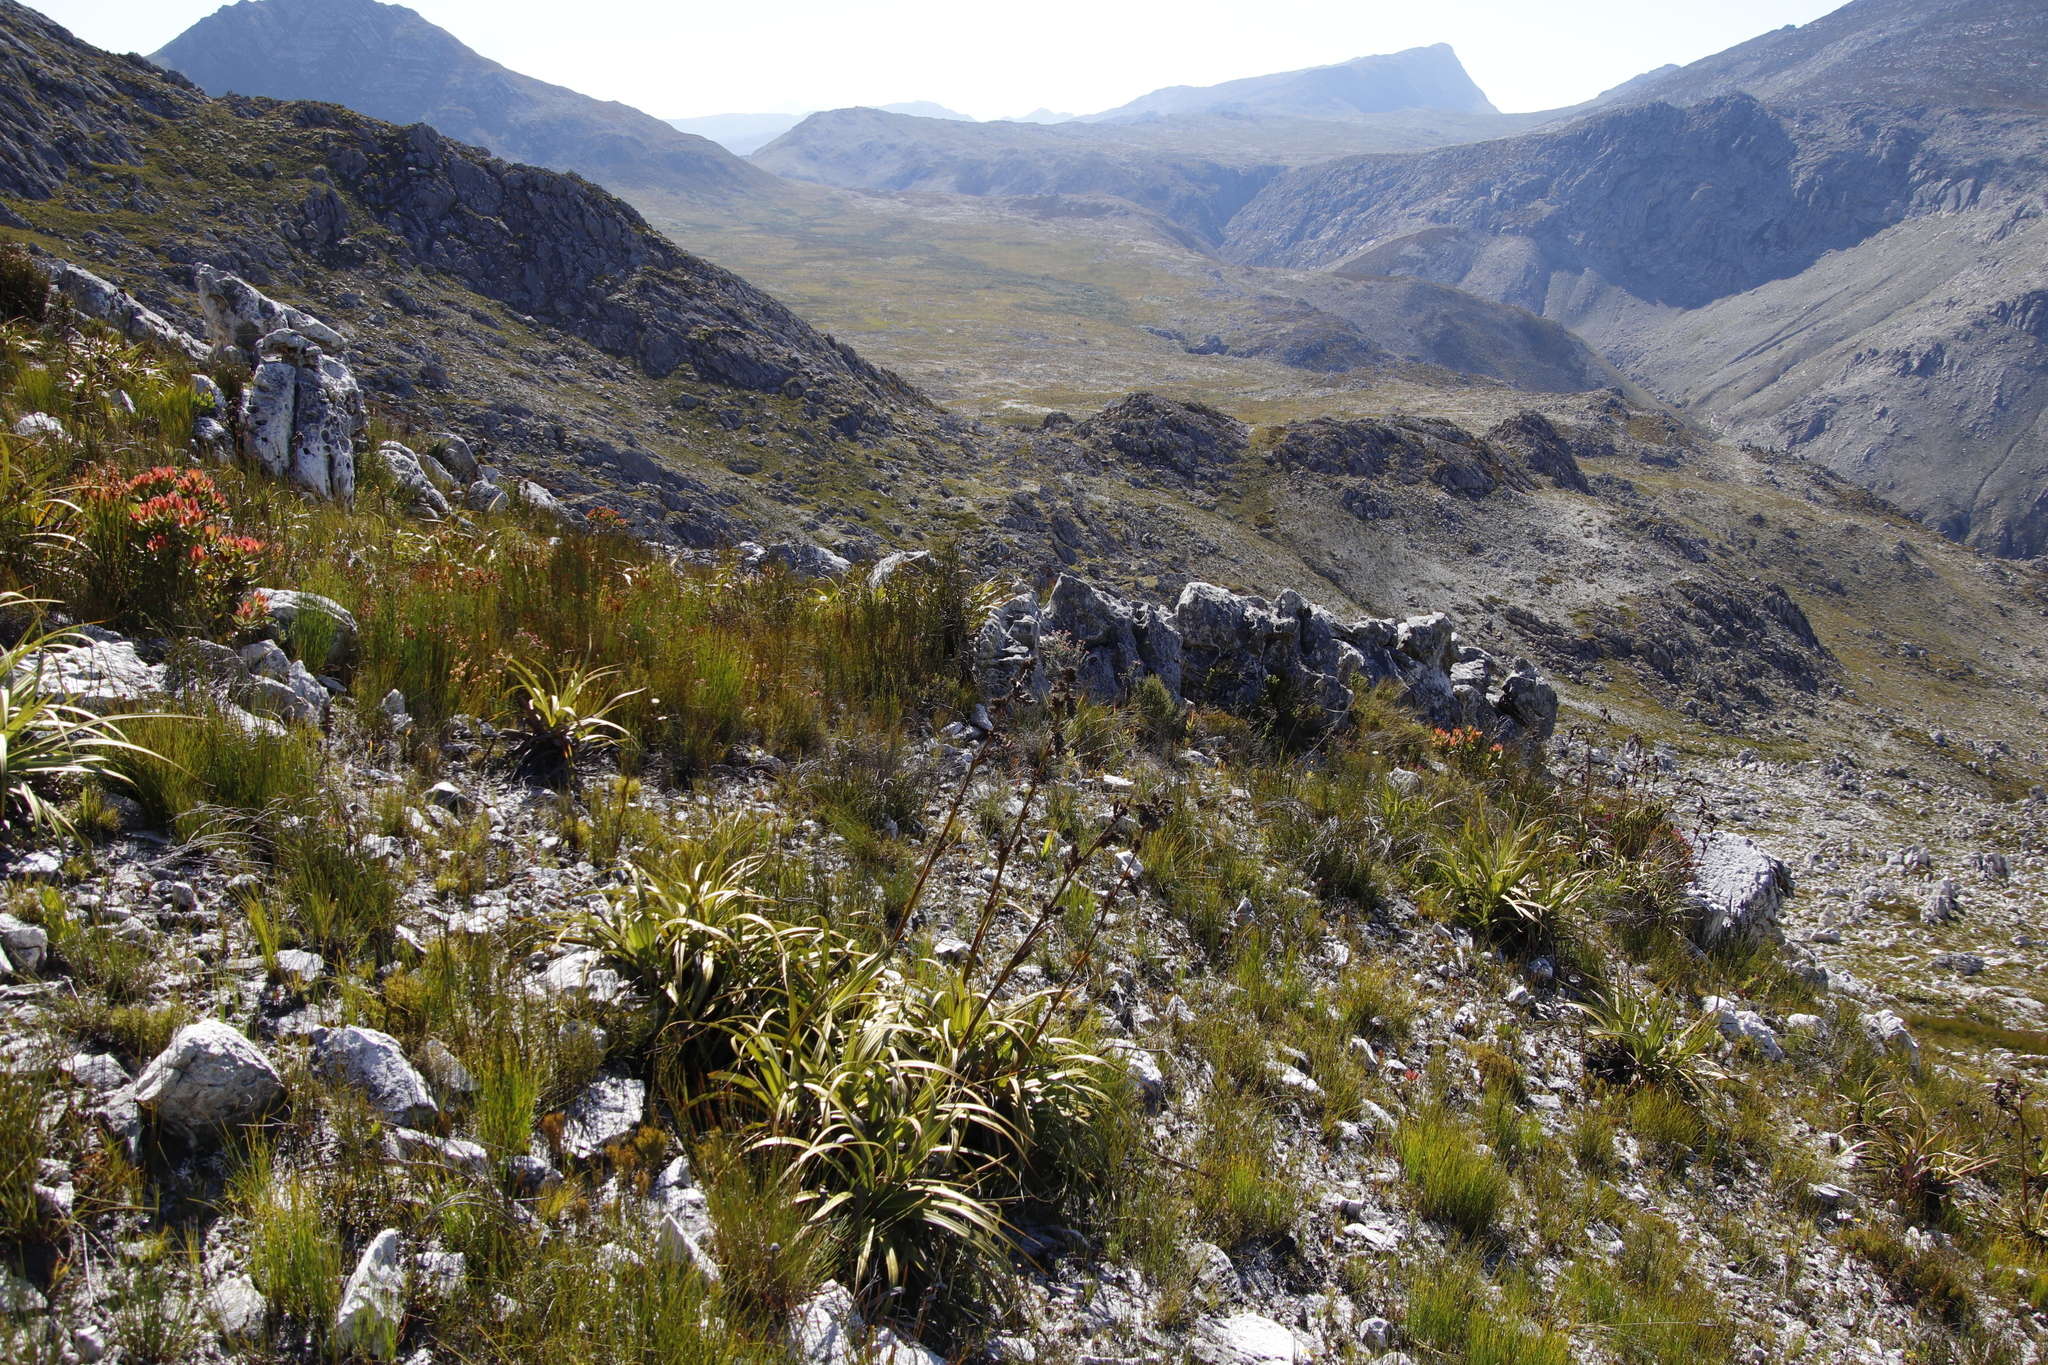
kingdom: Plantae
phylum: Tracheophyta
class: Liliopsida
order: Poales
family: Cyperaceae
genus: Tetraria
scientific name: Tetraria thermalis
